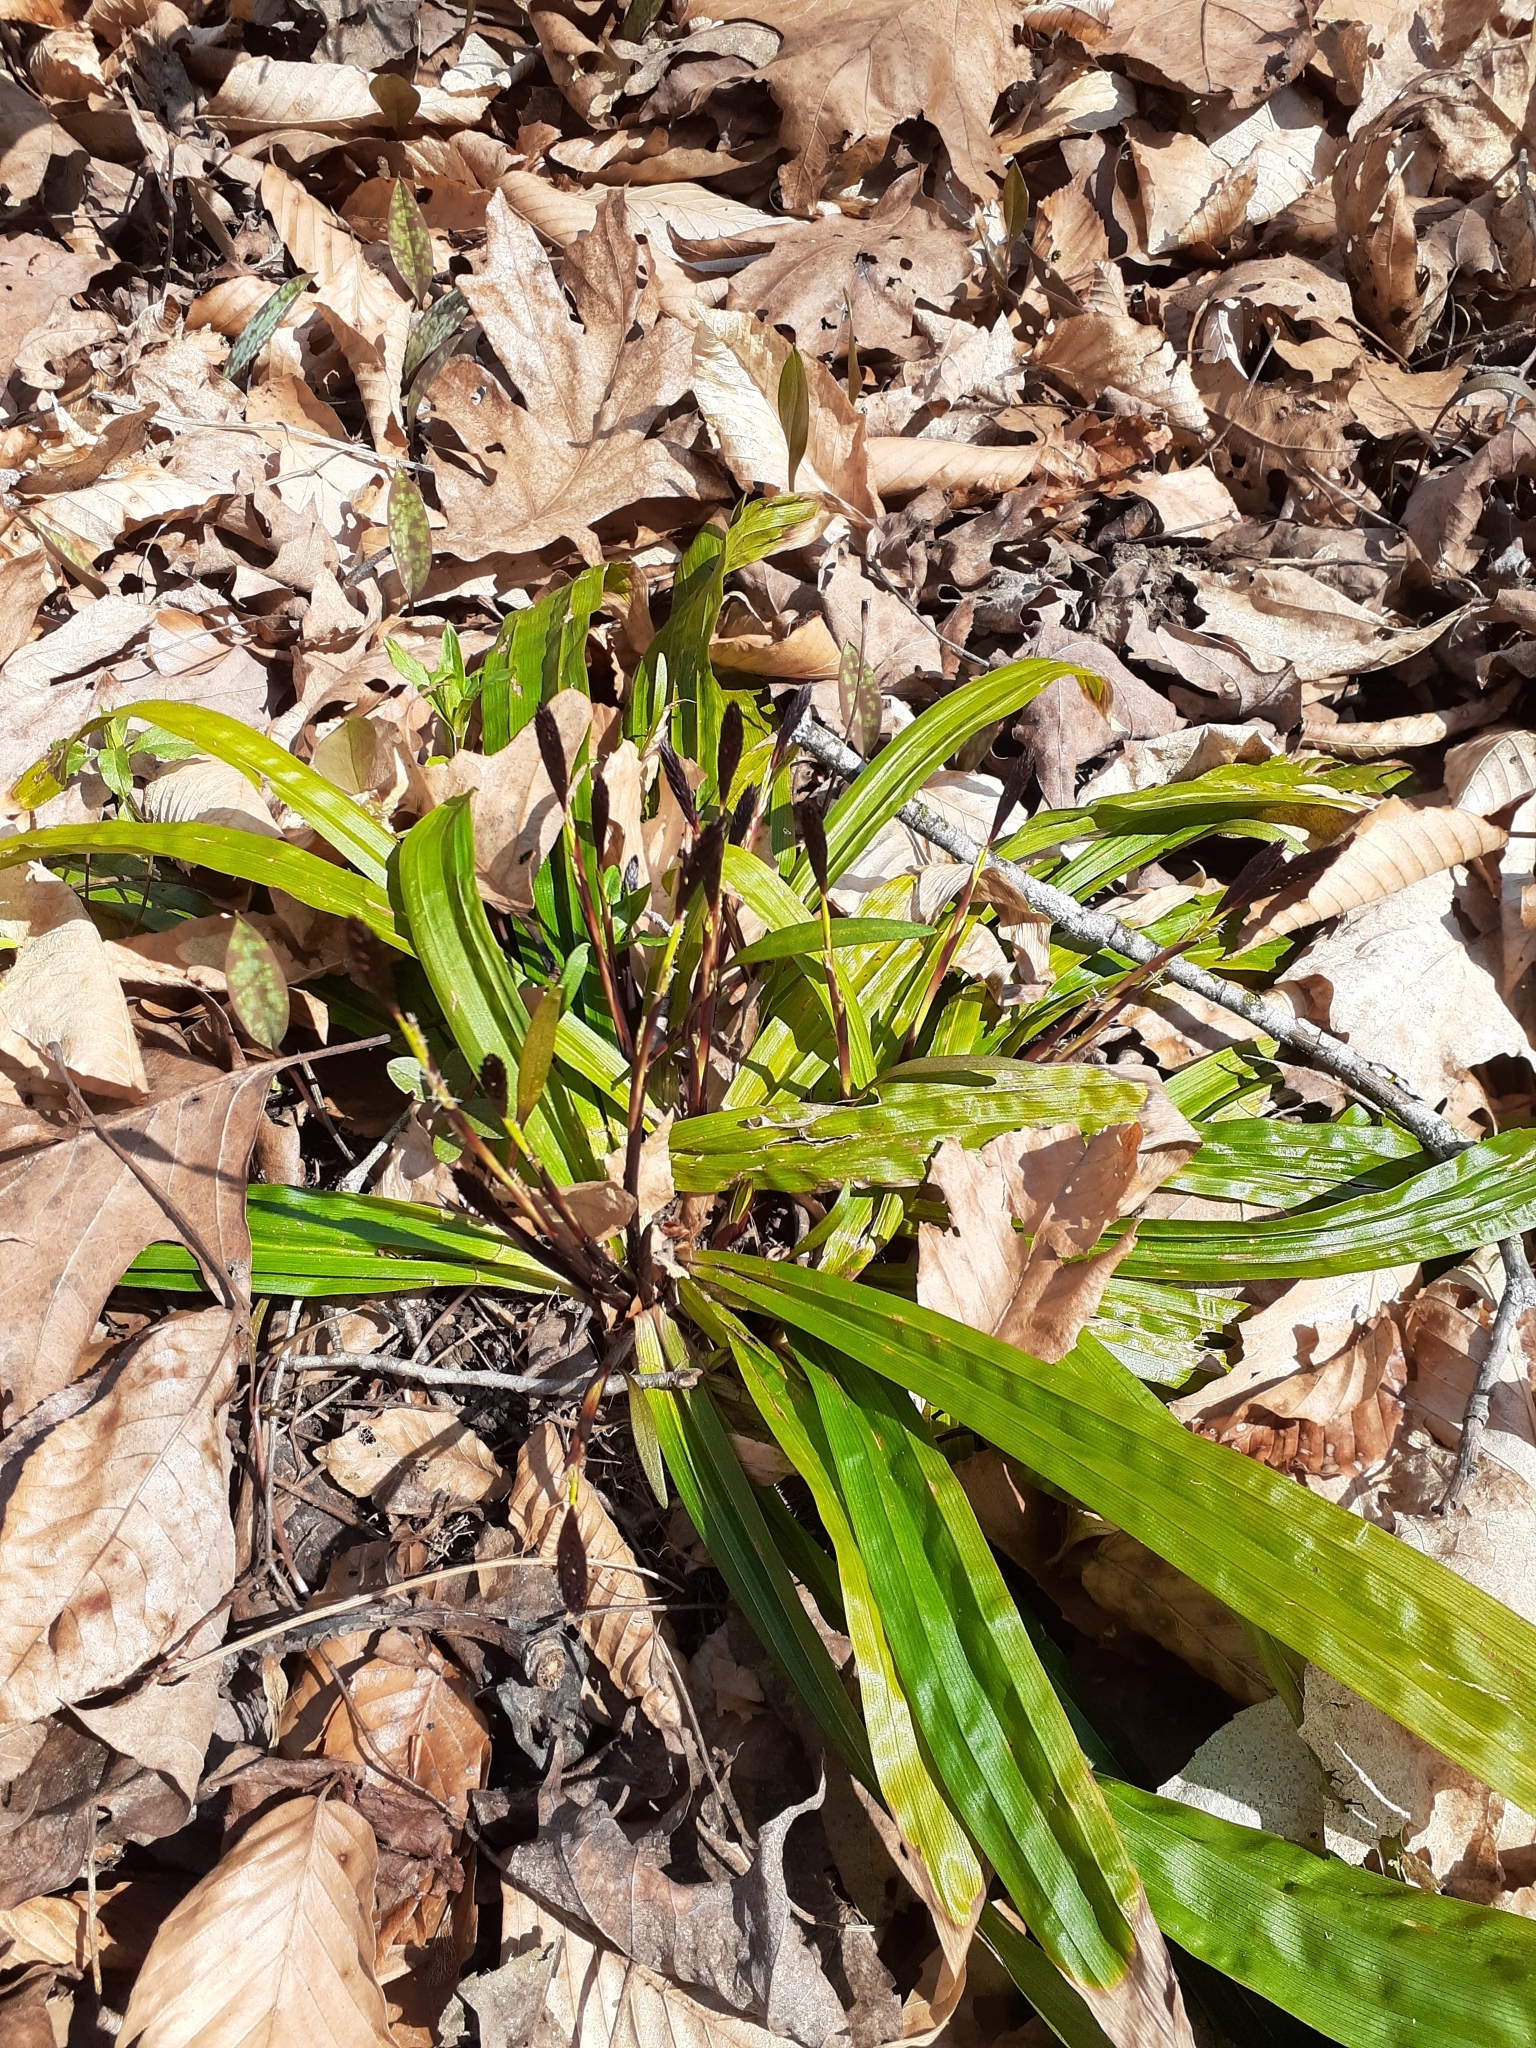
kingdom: Plantae
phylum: Tracheophyta
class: Liliopsida
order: Poales
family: Cyperaceae
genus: Carex
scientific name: Carex plantaginea
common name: Plantain-leaved sedge
